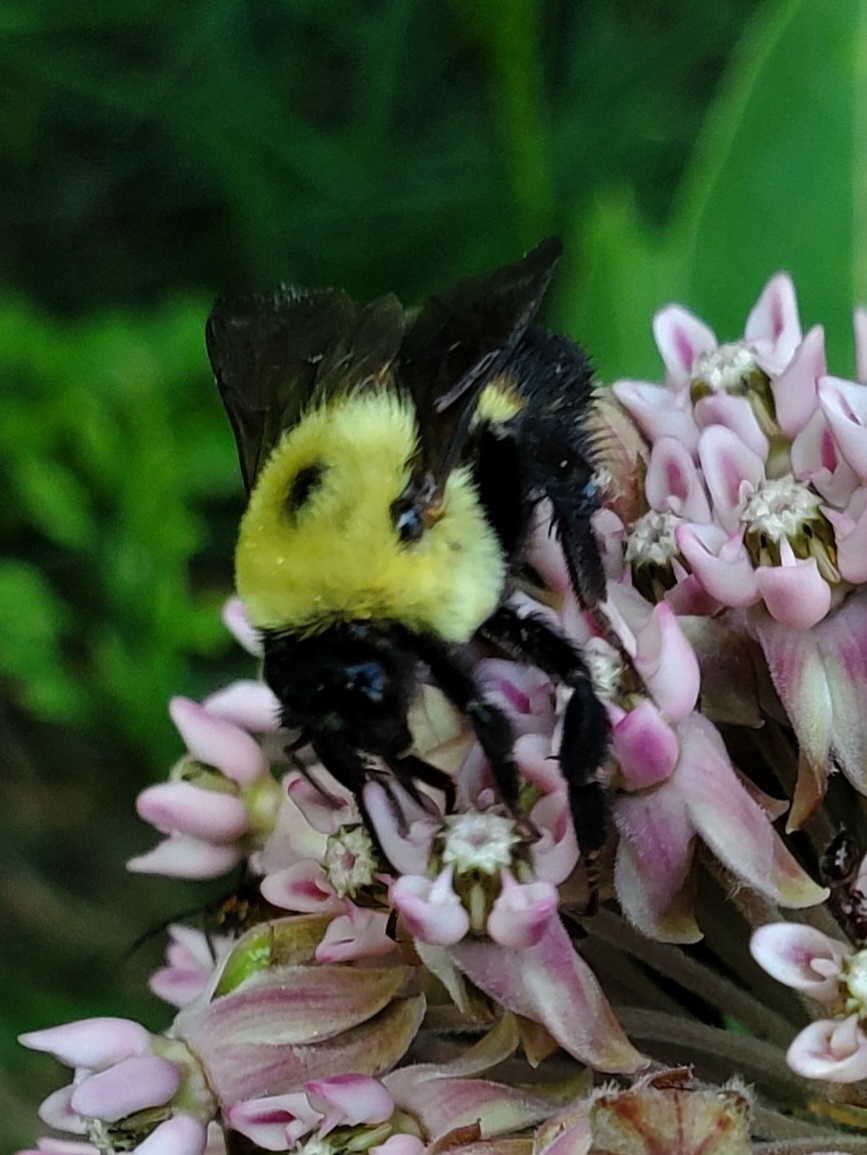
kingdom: Animalia
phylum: Arthropoda
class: Insecta
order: Hymenoptera
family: Apidae
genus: Bombus
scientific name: Bombus griseocollis
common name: Brown-belted bumble bee
